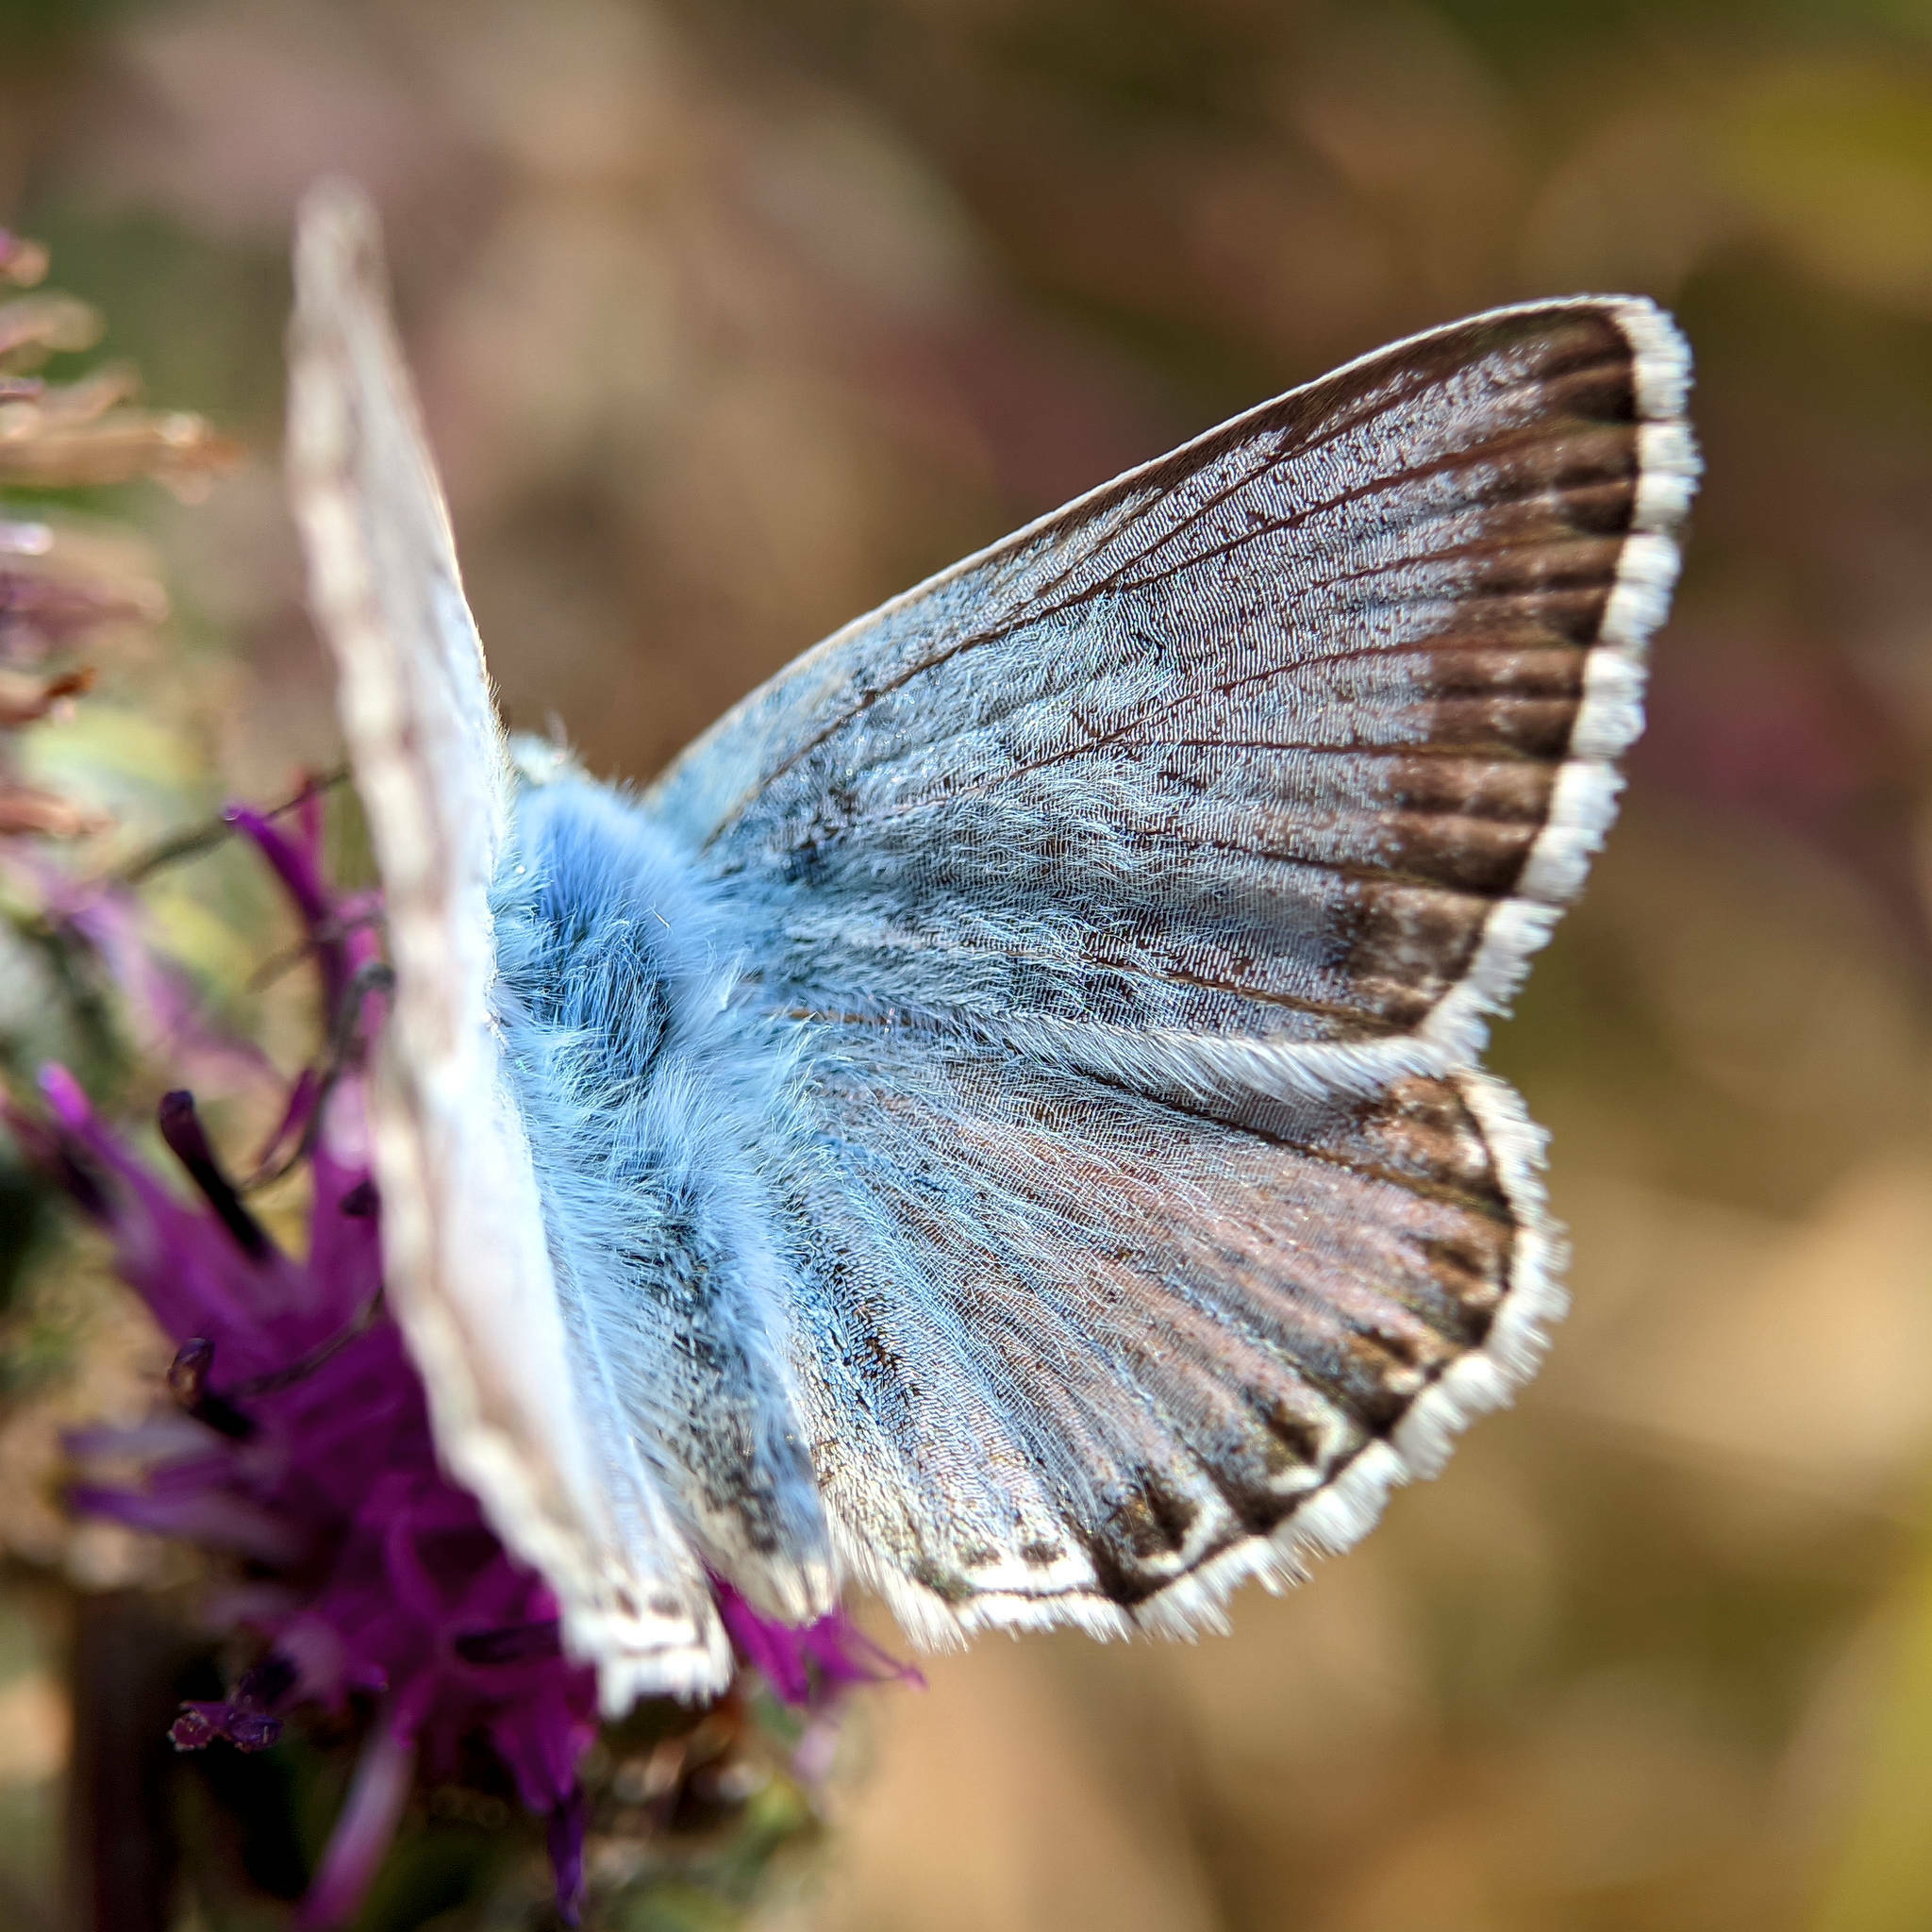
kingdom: Animalia
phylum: Arthropoda
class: Insecta
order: Lepidoptera
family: Lycaenidae
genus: Lysandra
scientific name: Lysandra coridon
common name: Chalkhill blue
